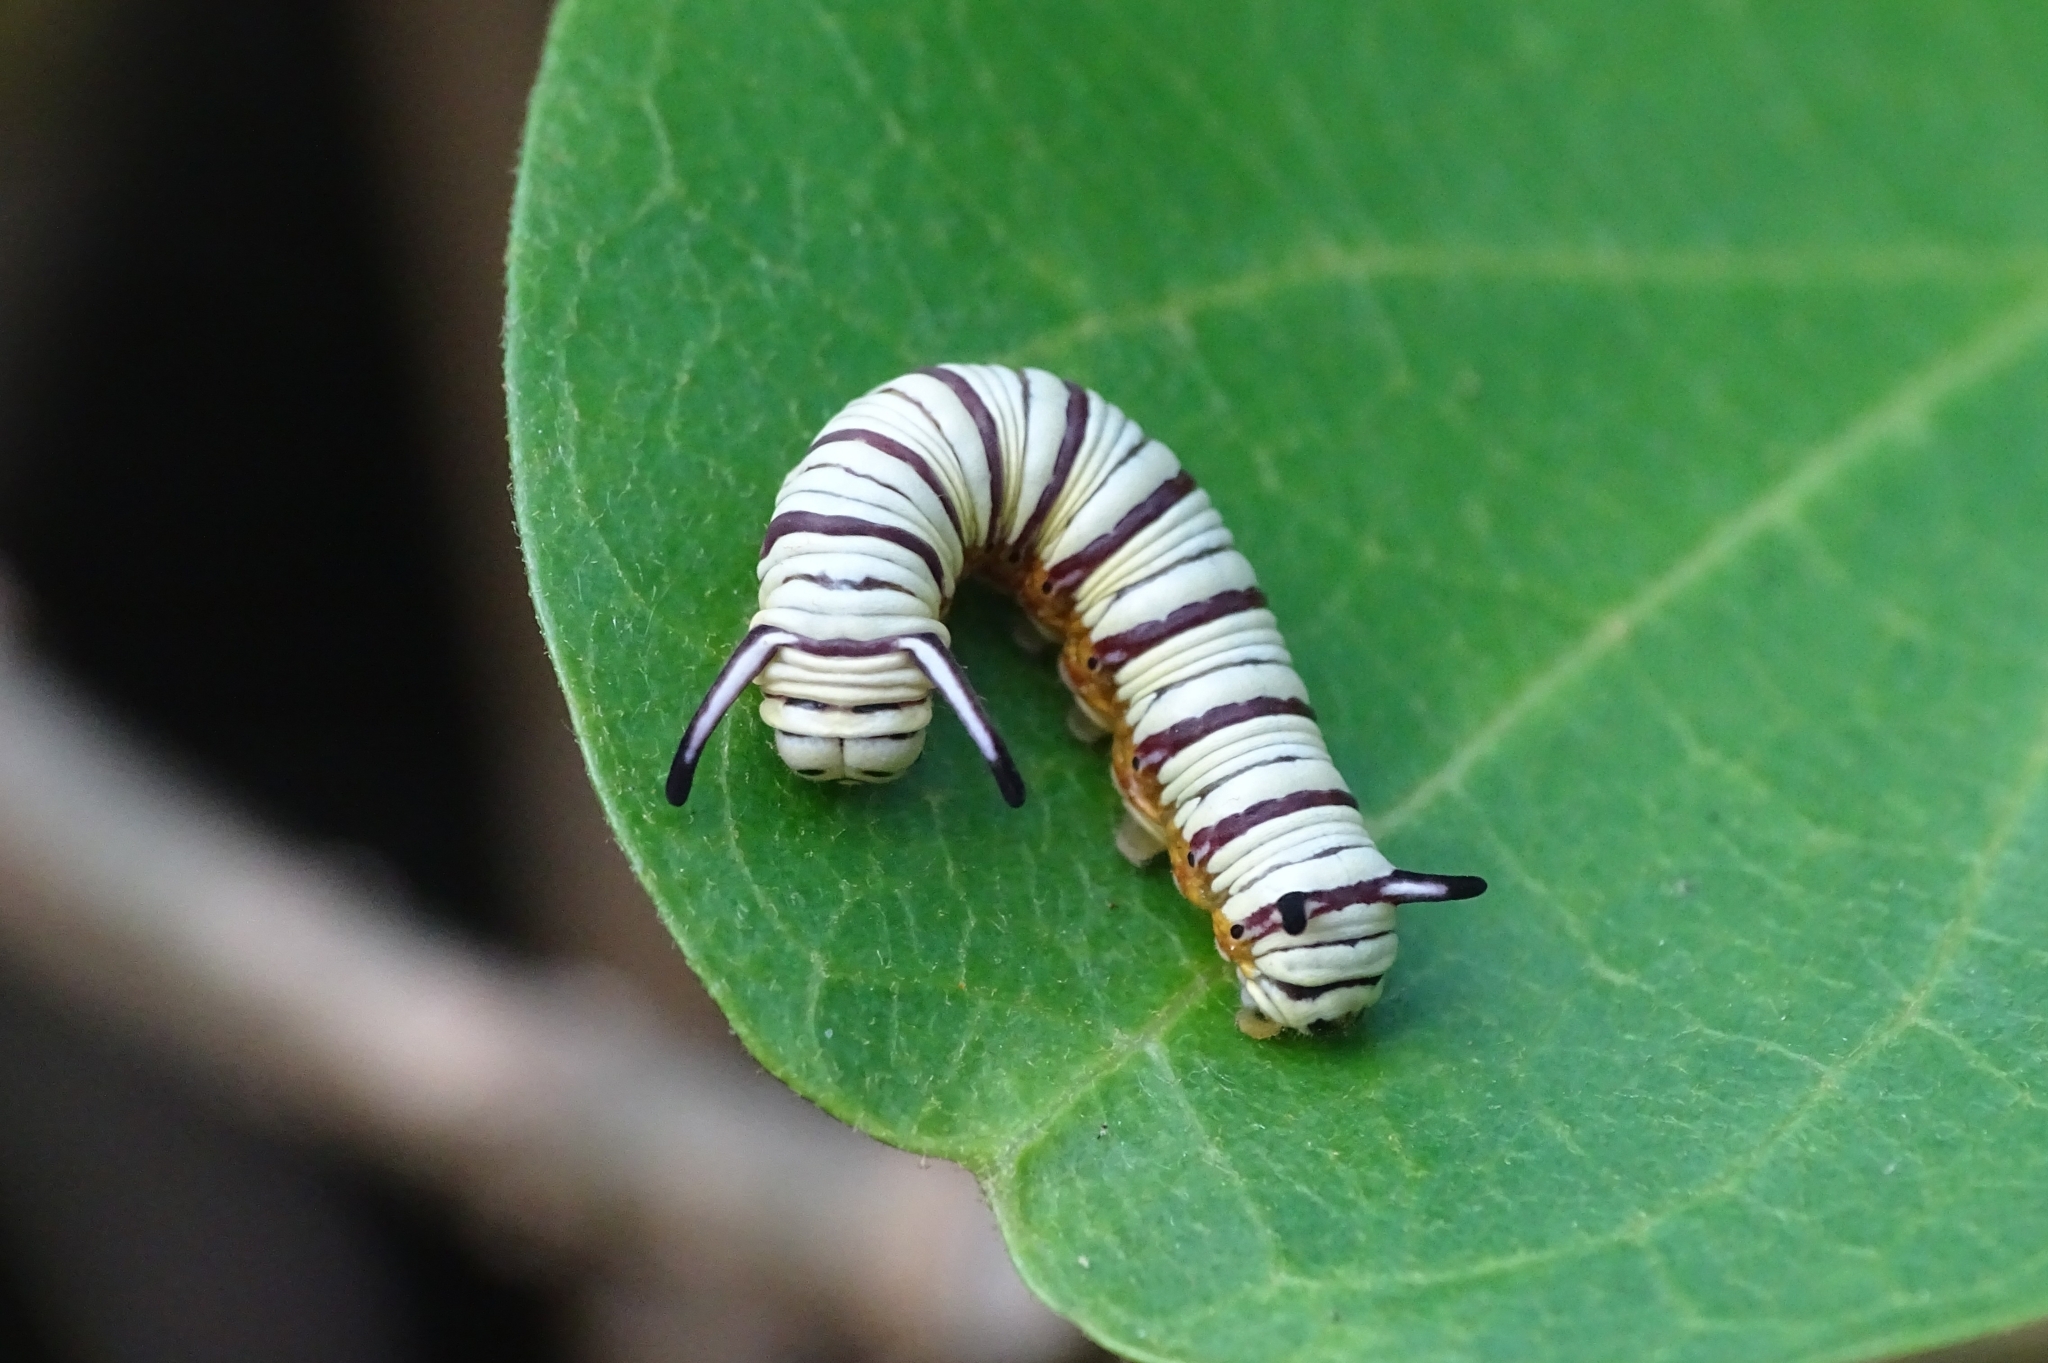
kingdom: Animalia
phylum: Arthropoda
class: Insecta
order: Lepidoptera
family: Nymphalidae
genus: Tirumala
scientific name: Tirumala limniace
